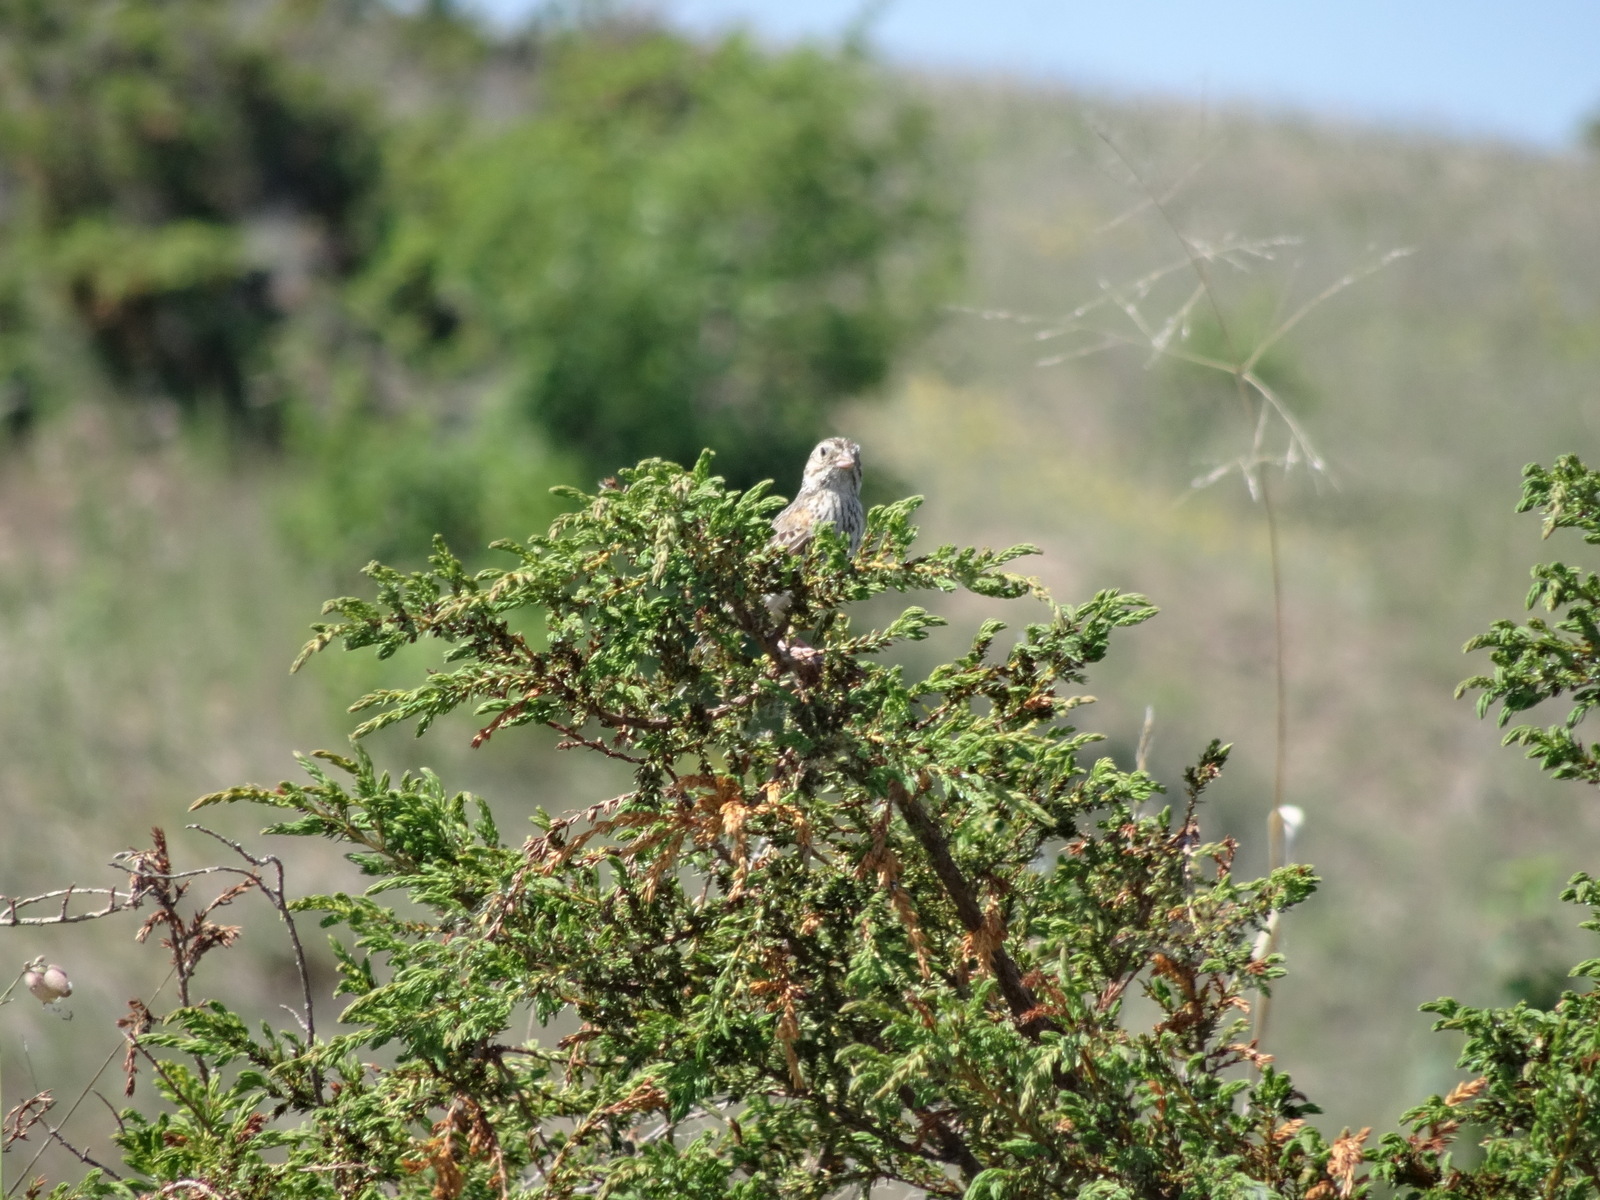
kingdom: Animalia
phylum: Chordata
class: Aves
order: Passeriformes
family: Passerellidae
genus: Pooecetes
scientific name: Pooecetes gramineus
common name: Vesper sparrow
